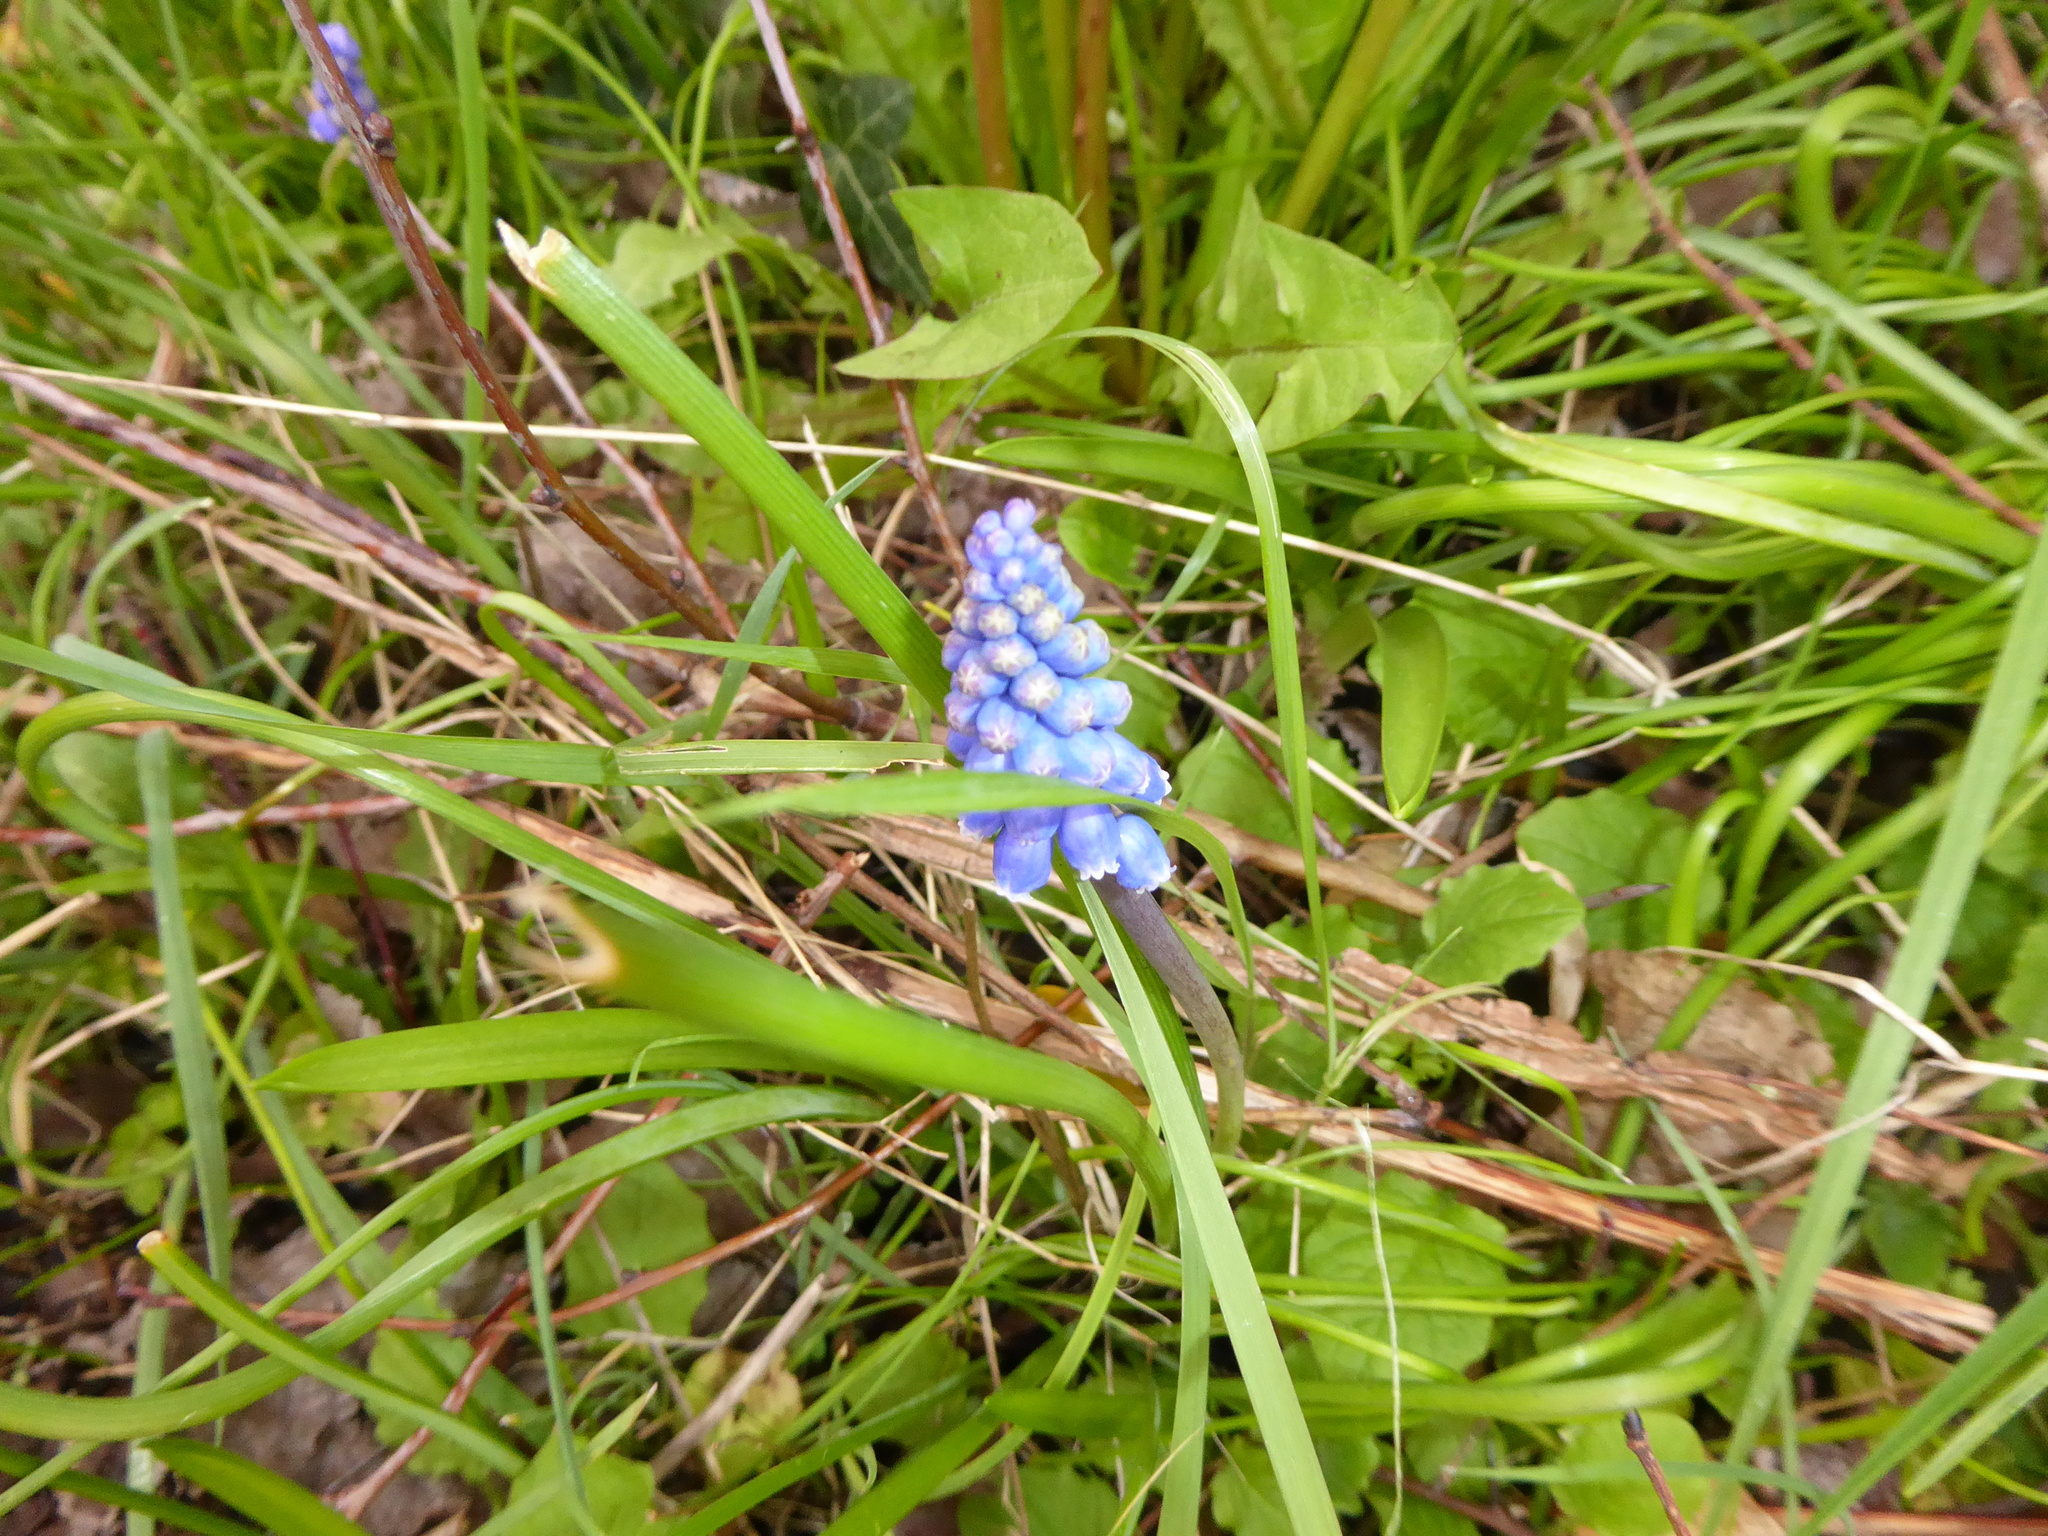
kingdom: Plantae
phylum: Tracheophyta
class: Liliopsida
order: Asparagales
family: Asparagaceae
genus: Muscari
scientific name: Muscari armeniacum
